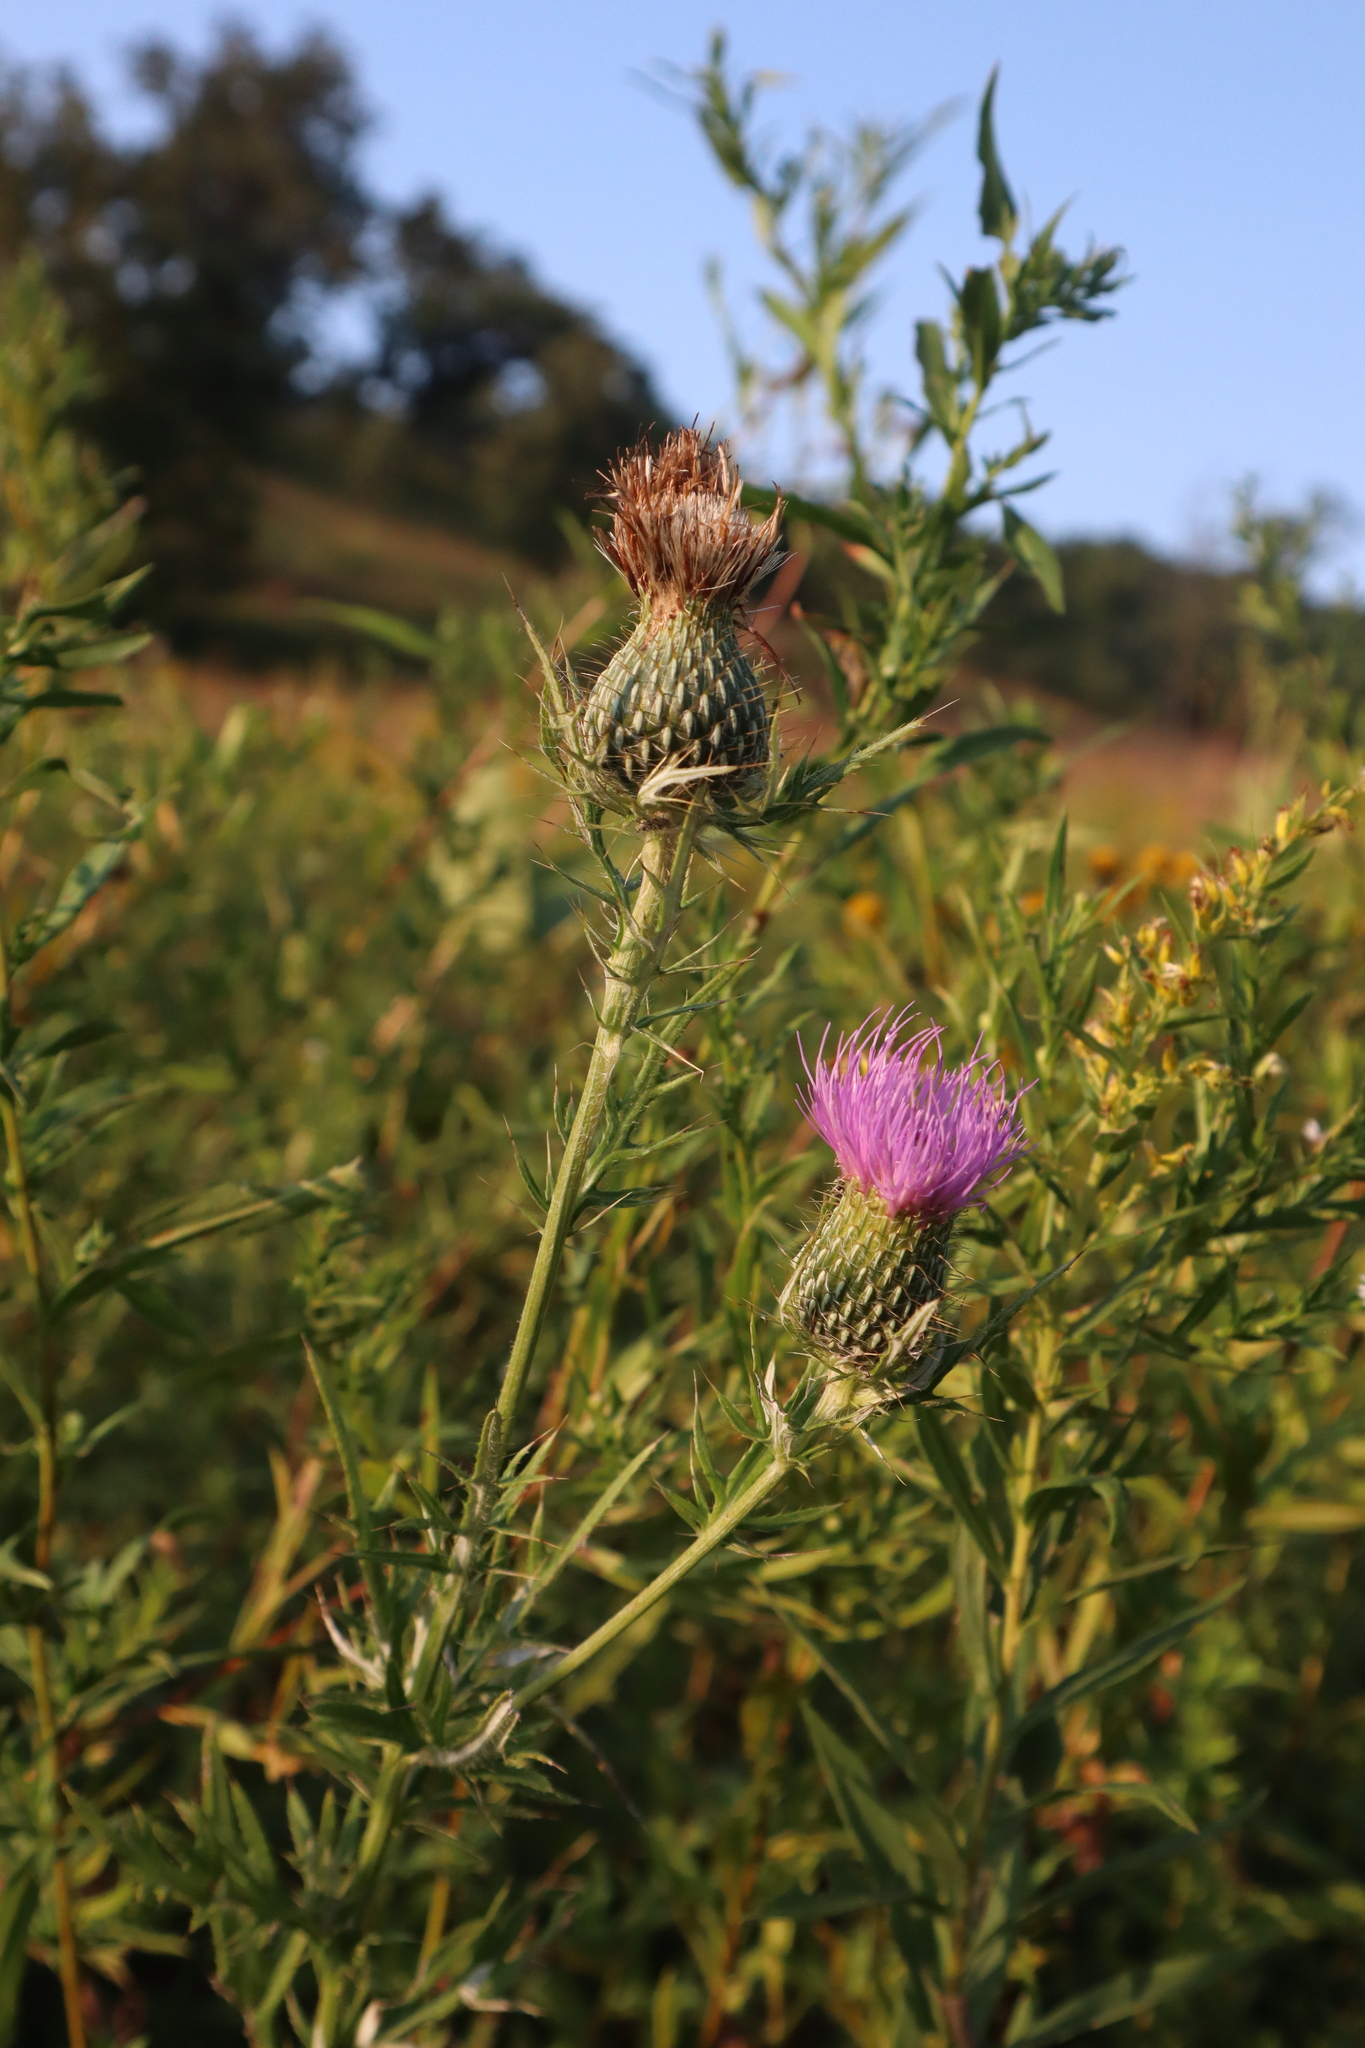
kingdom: Plantae
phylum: Tracheophyta
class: Magnoliopsida
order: Asterales
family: Asteraceae
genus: Cirsium
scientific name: Cirsium discolor
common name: Field thistle
